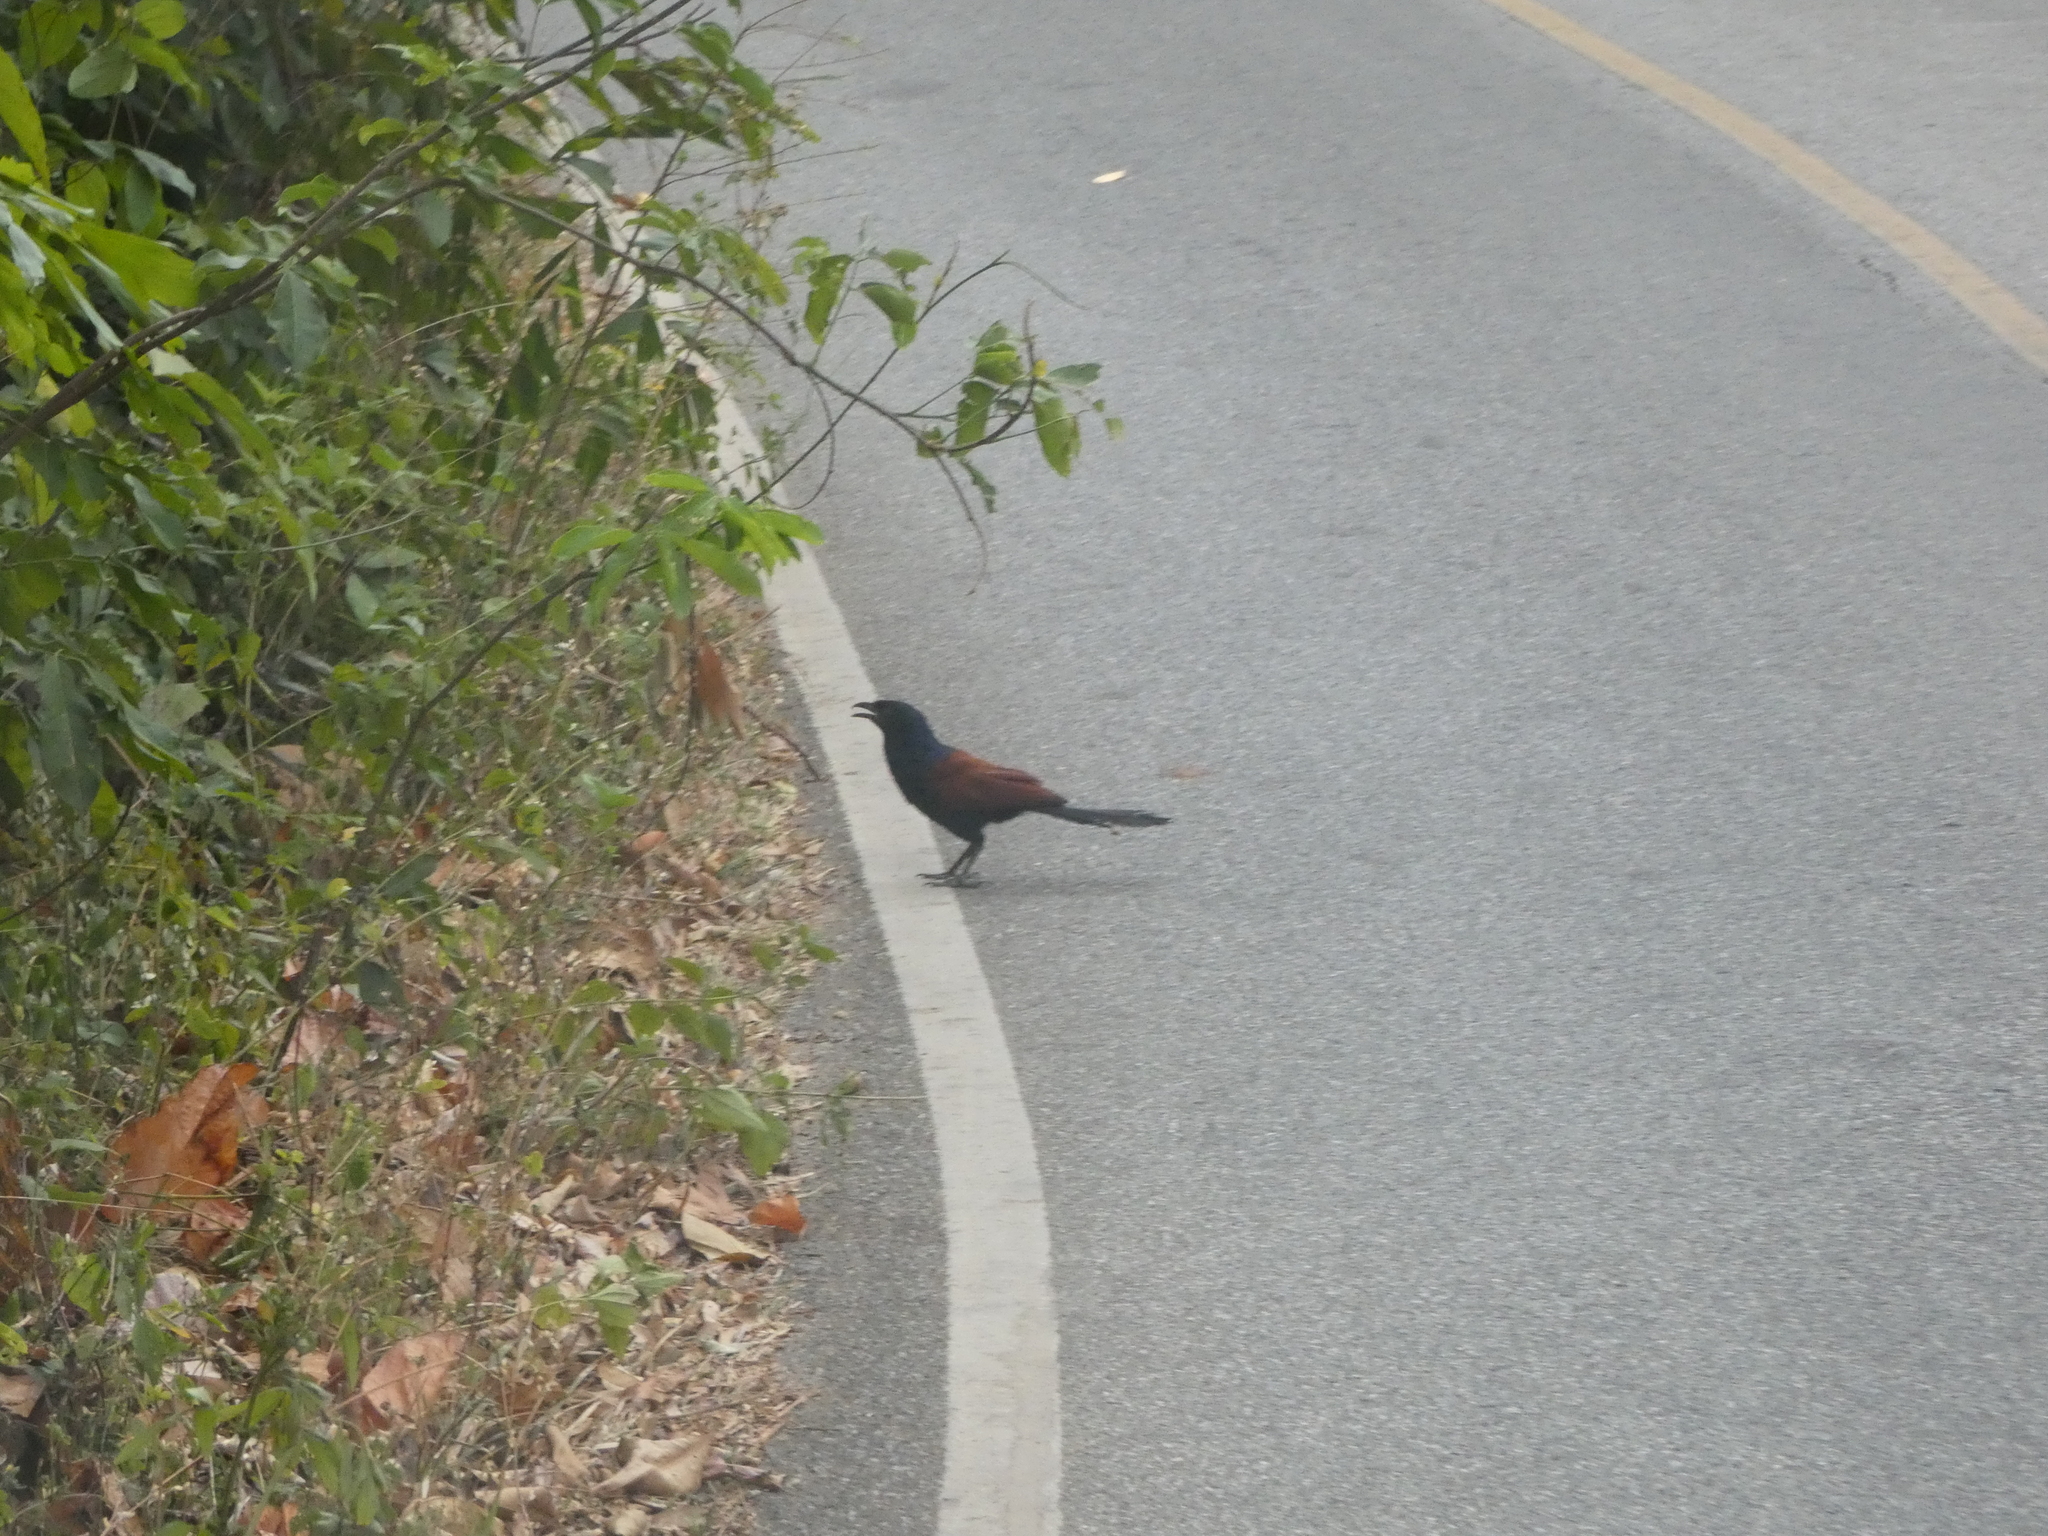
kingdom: Animalia
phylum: Chordata
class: Aves
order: Cuculiformes
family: Cuculidae
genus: Centropus
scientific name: Centropus sinensis
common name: Greater coucal
